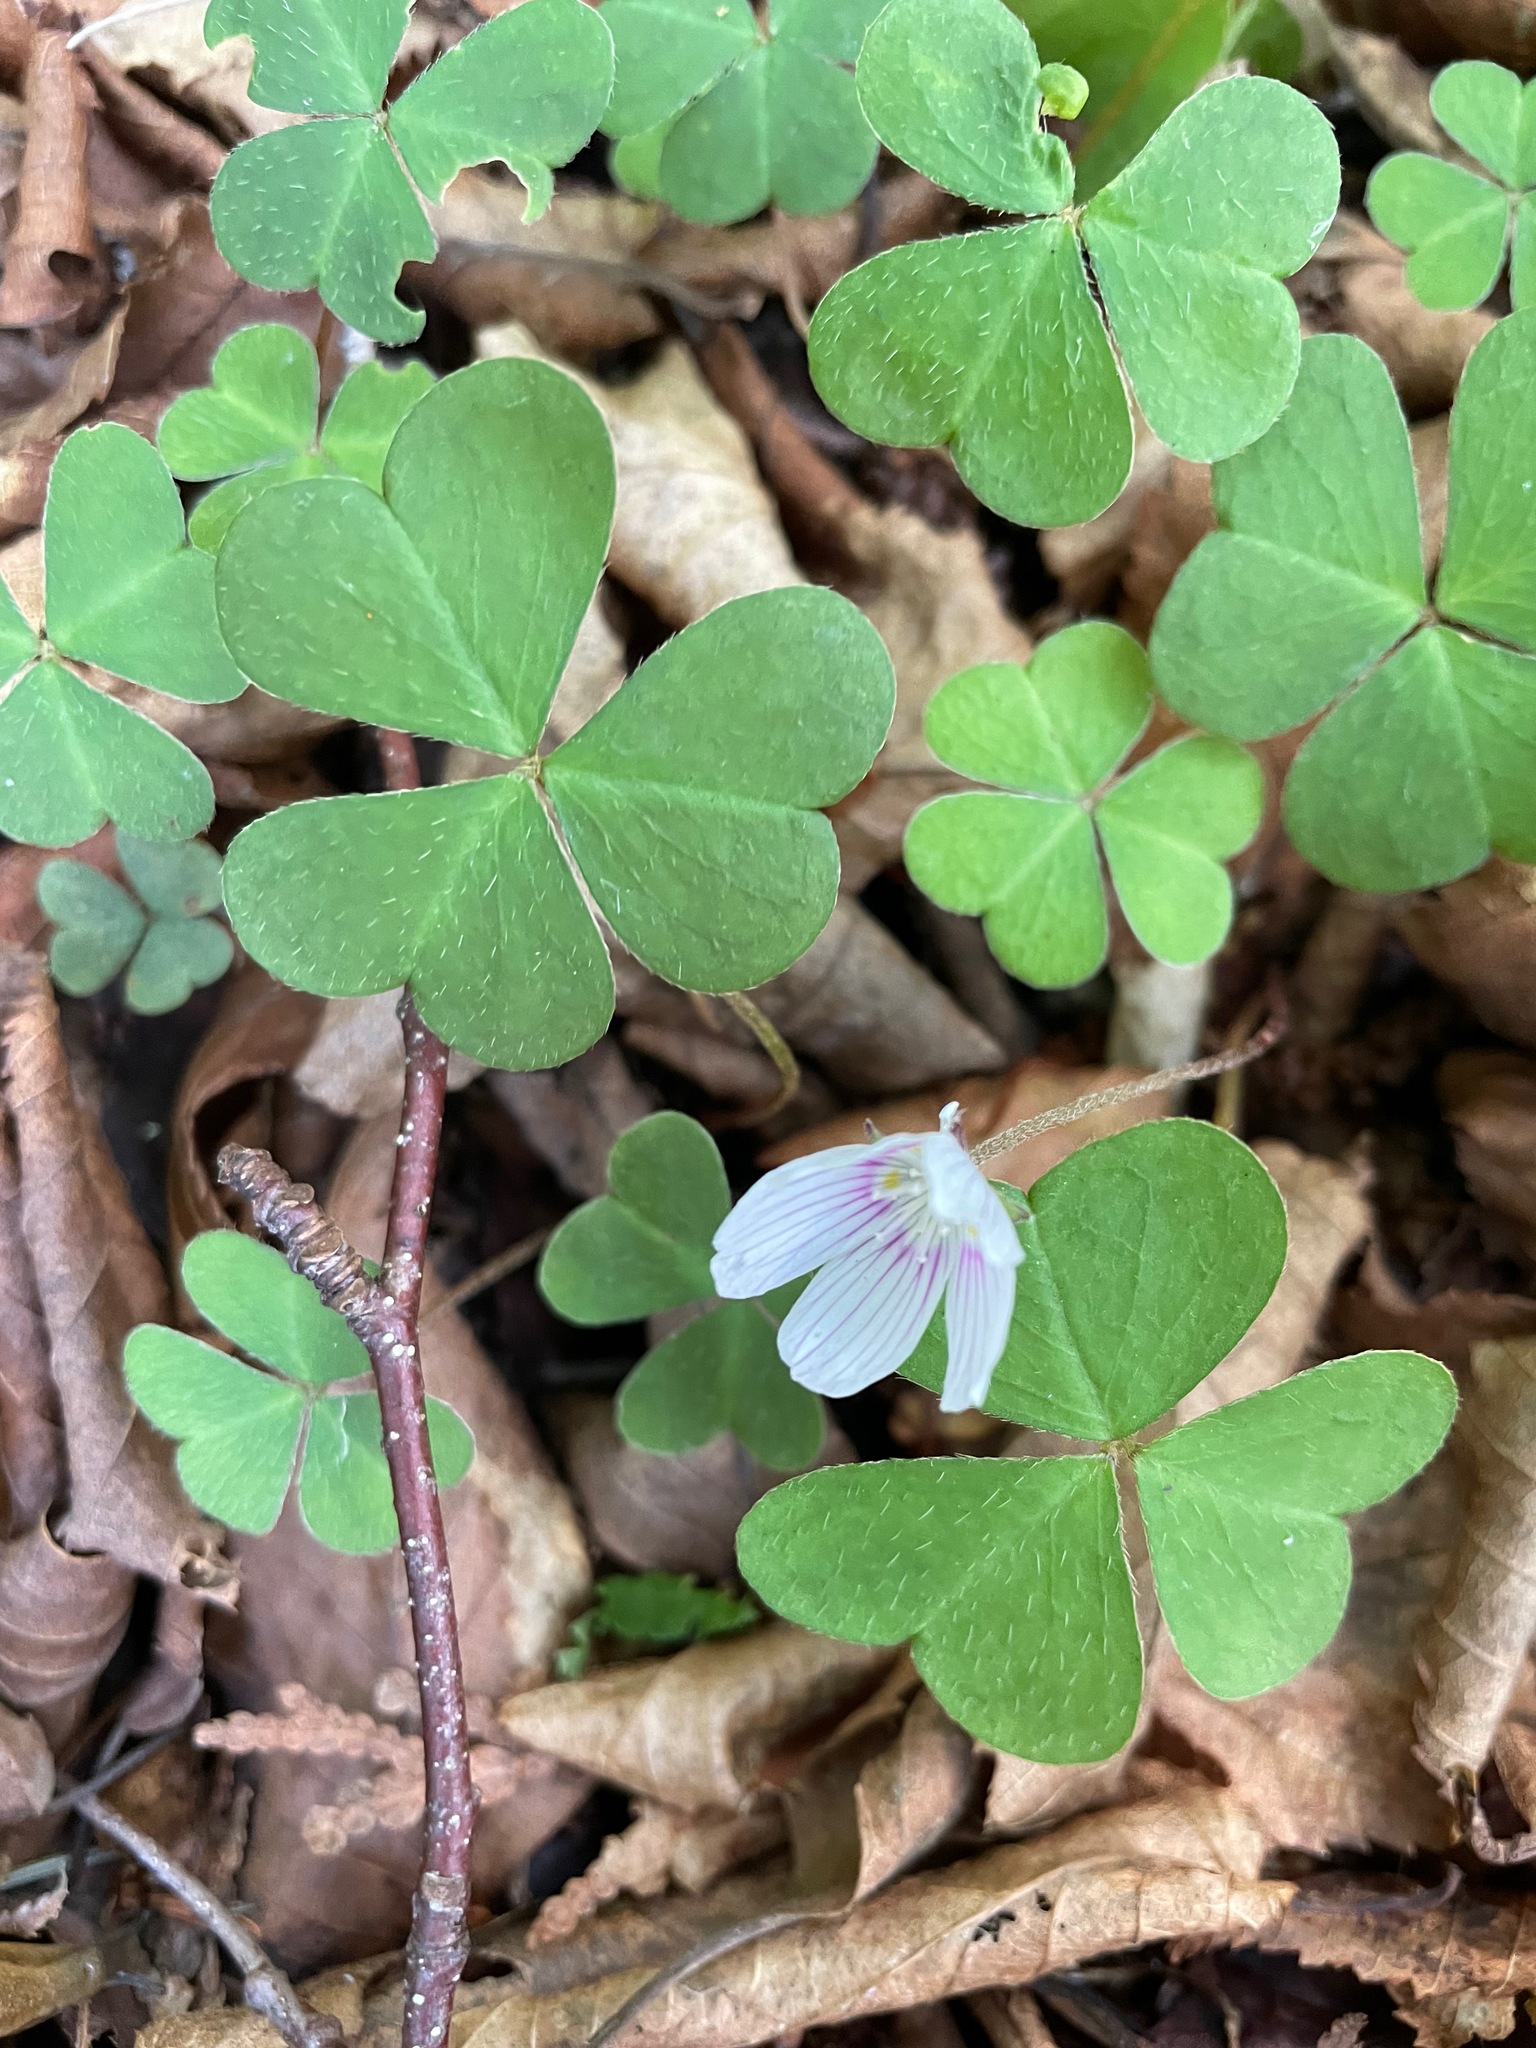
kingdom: Plantae
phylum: Tracheophyta
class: Magnoliopsida
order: Oxalidales
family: Oxalidaceae
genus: Oxalis
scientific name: Oxalis montana
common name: American wood-sorrel
